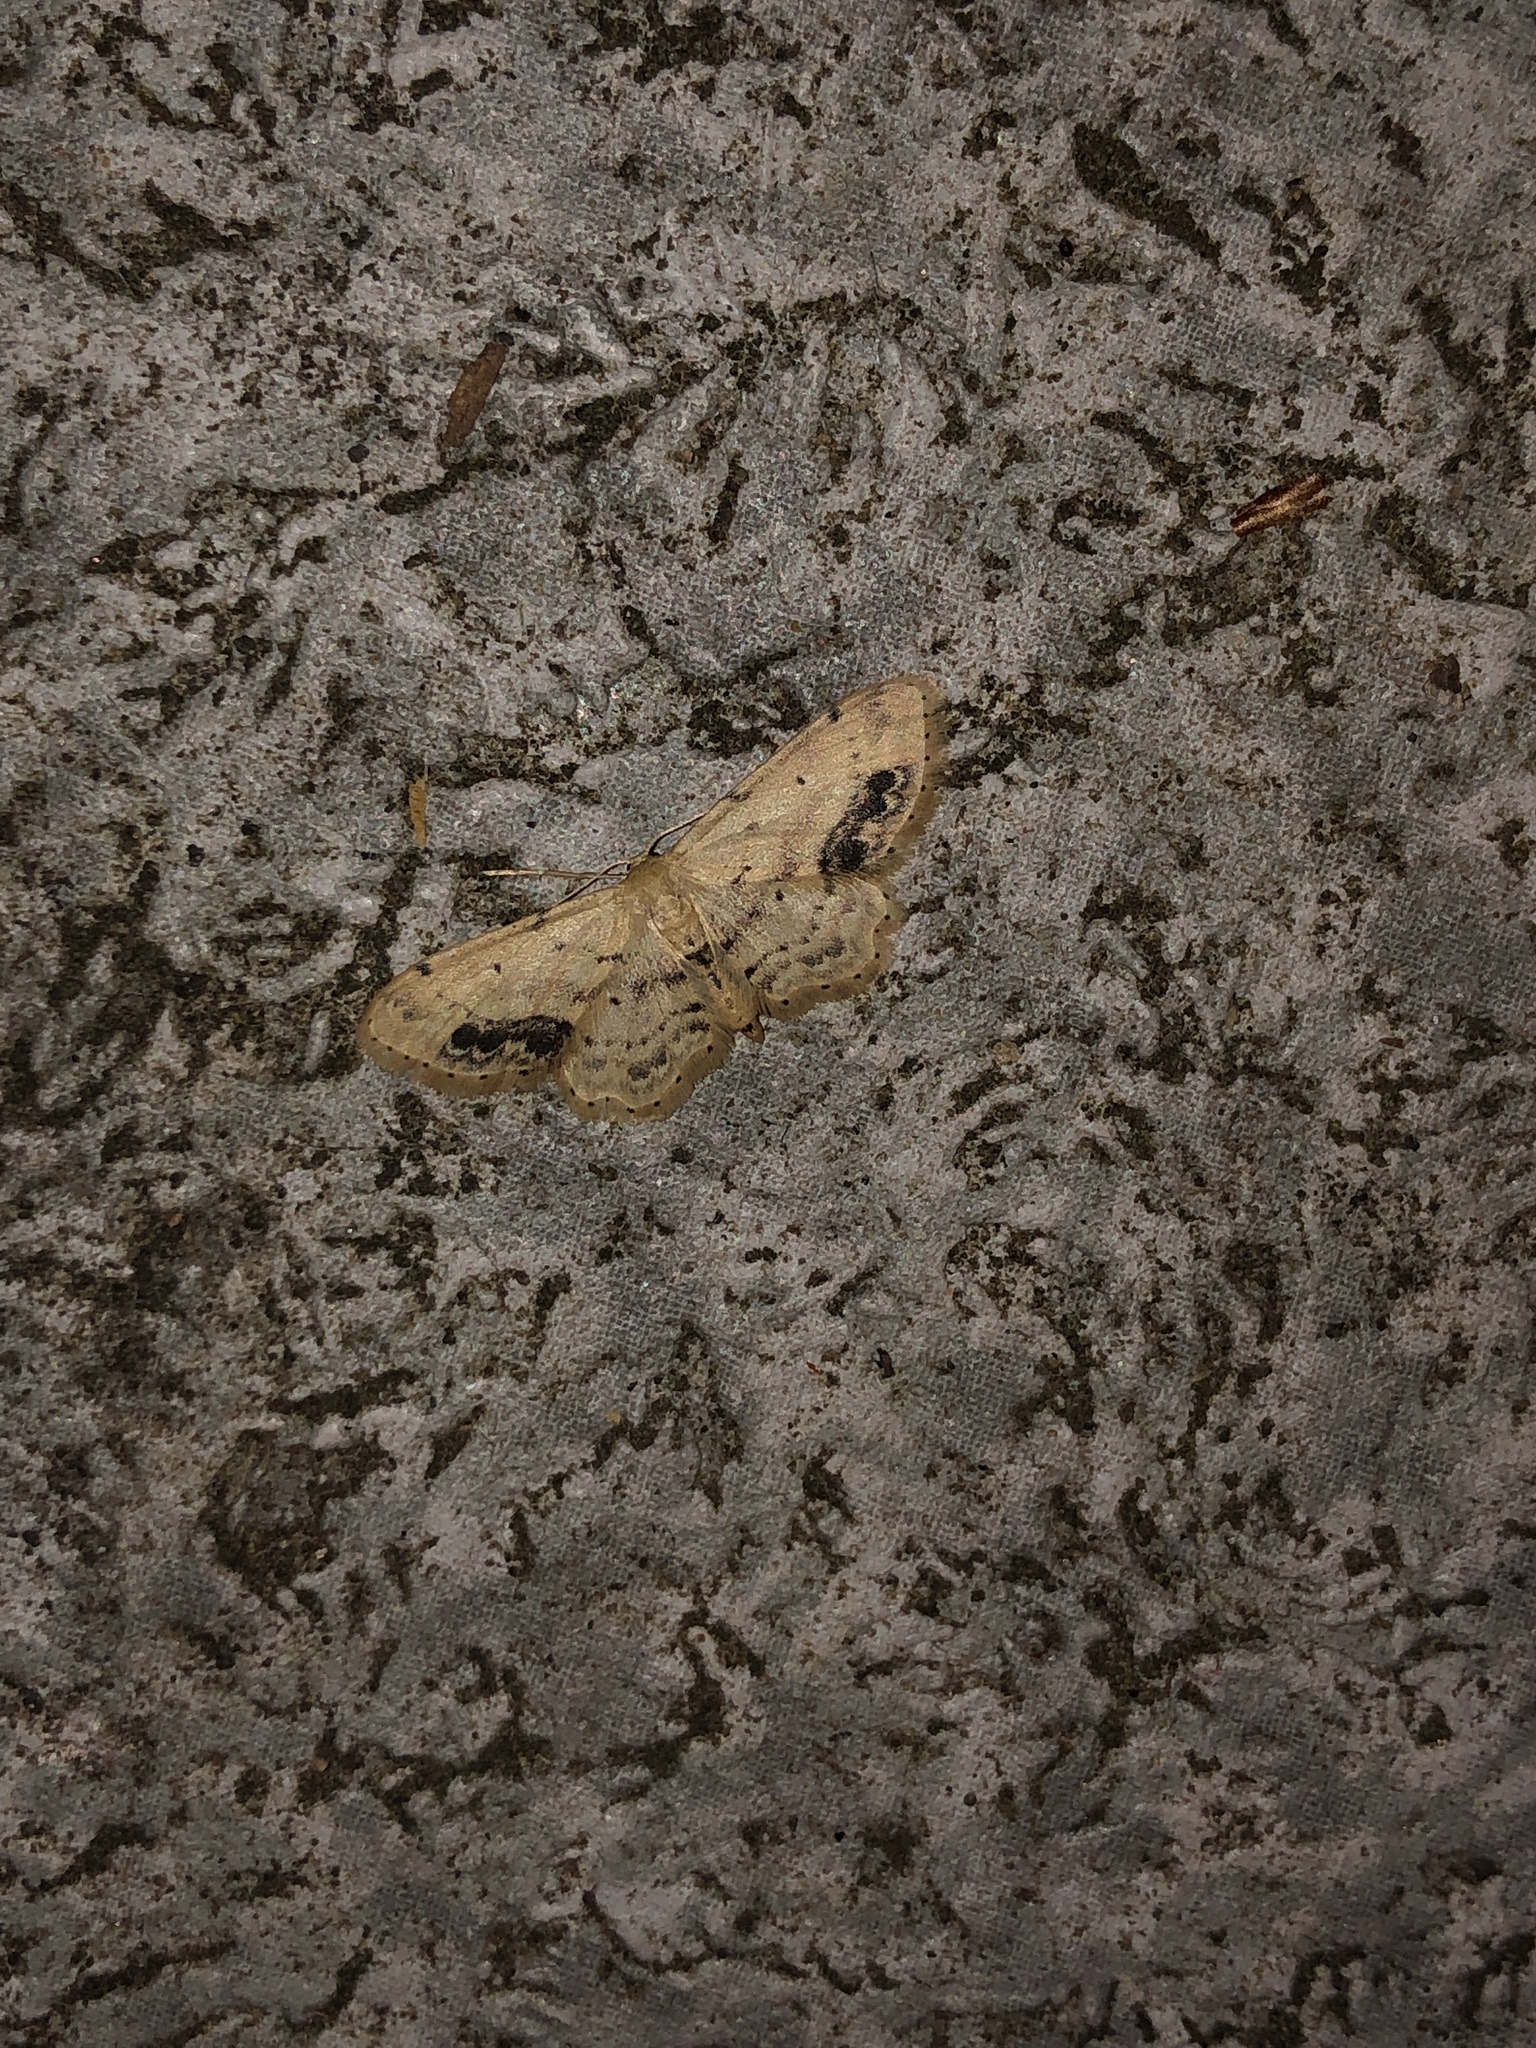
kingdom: Animalia
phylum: Arthropoda
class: Insecta
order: Lepidoptera
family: Geometridae
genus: Idaea
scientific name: Idaea dimidiata
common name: Single-dotted wave
